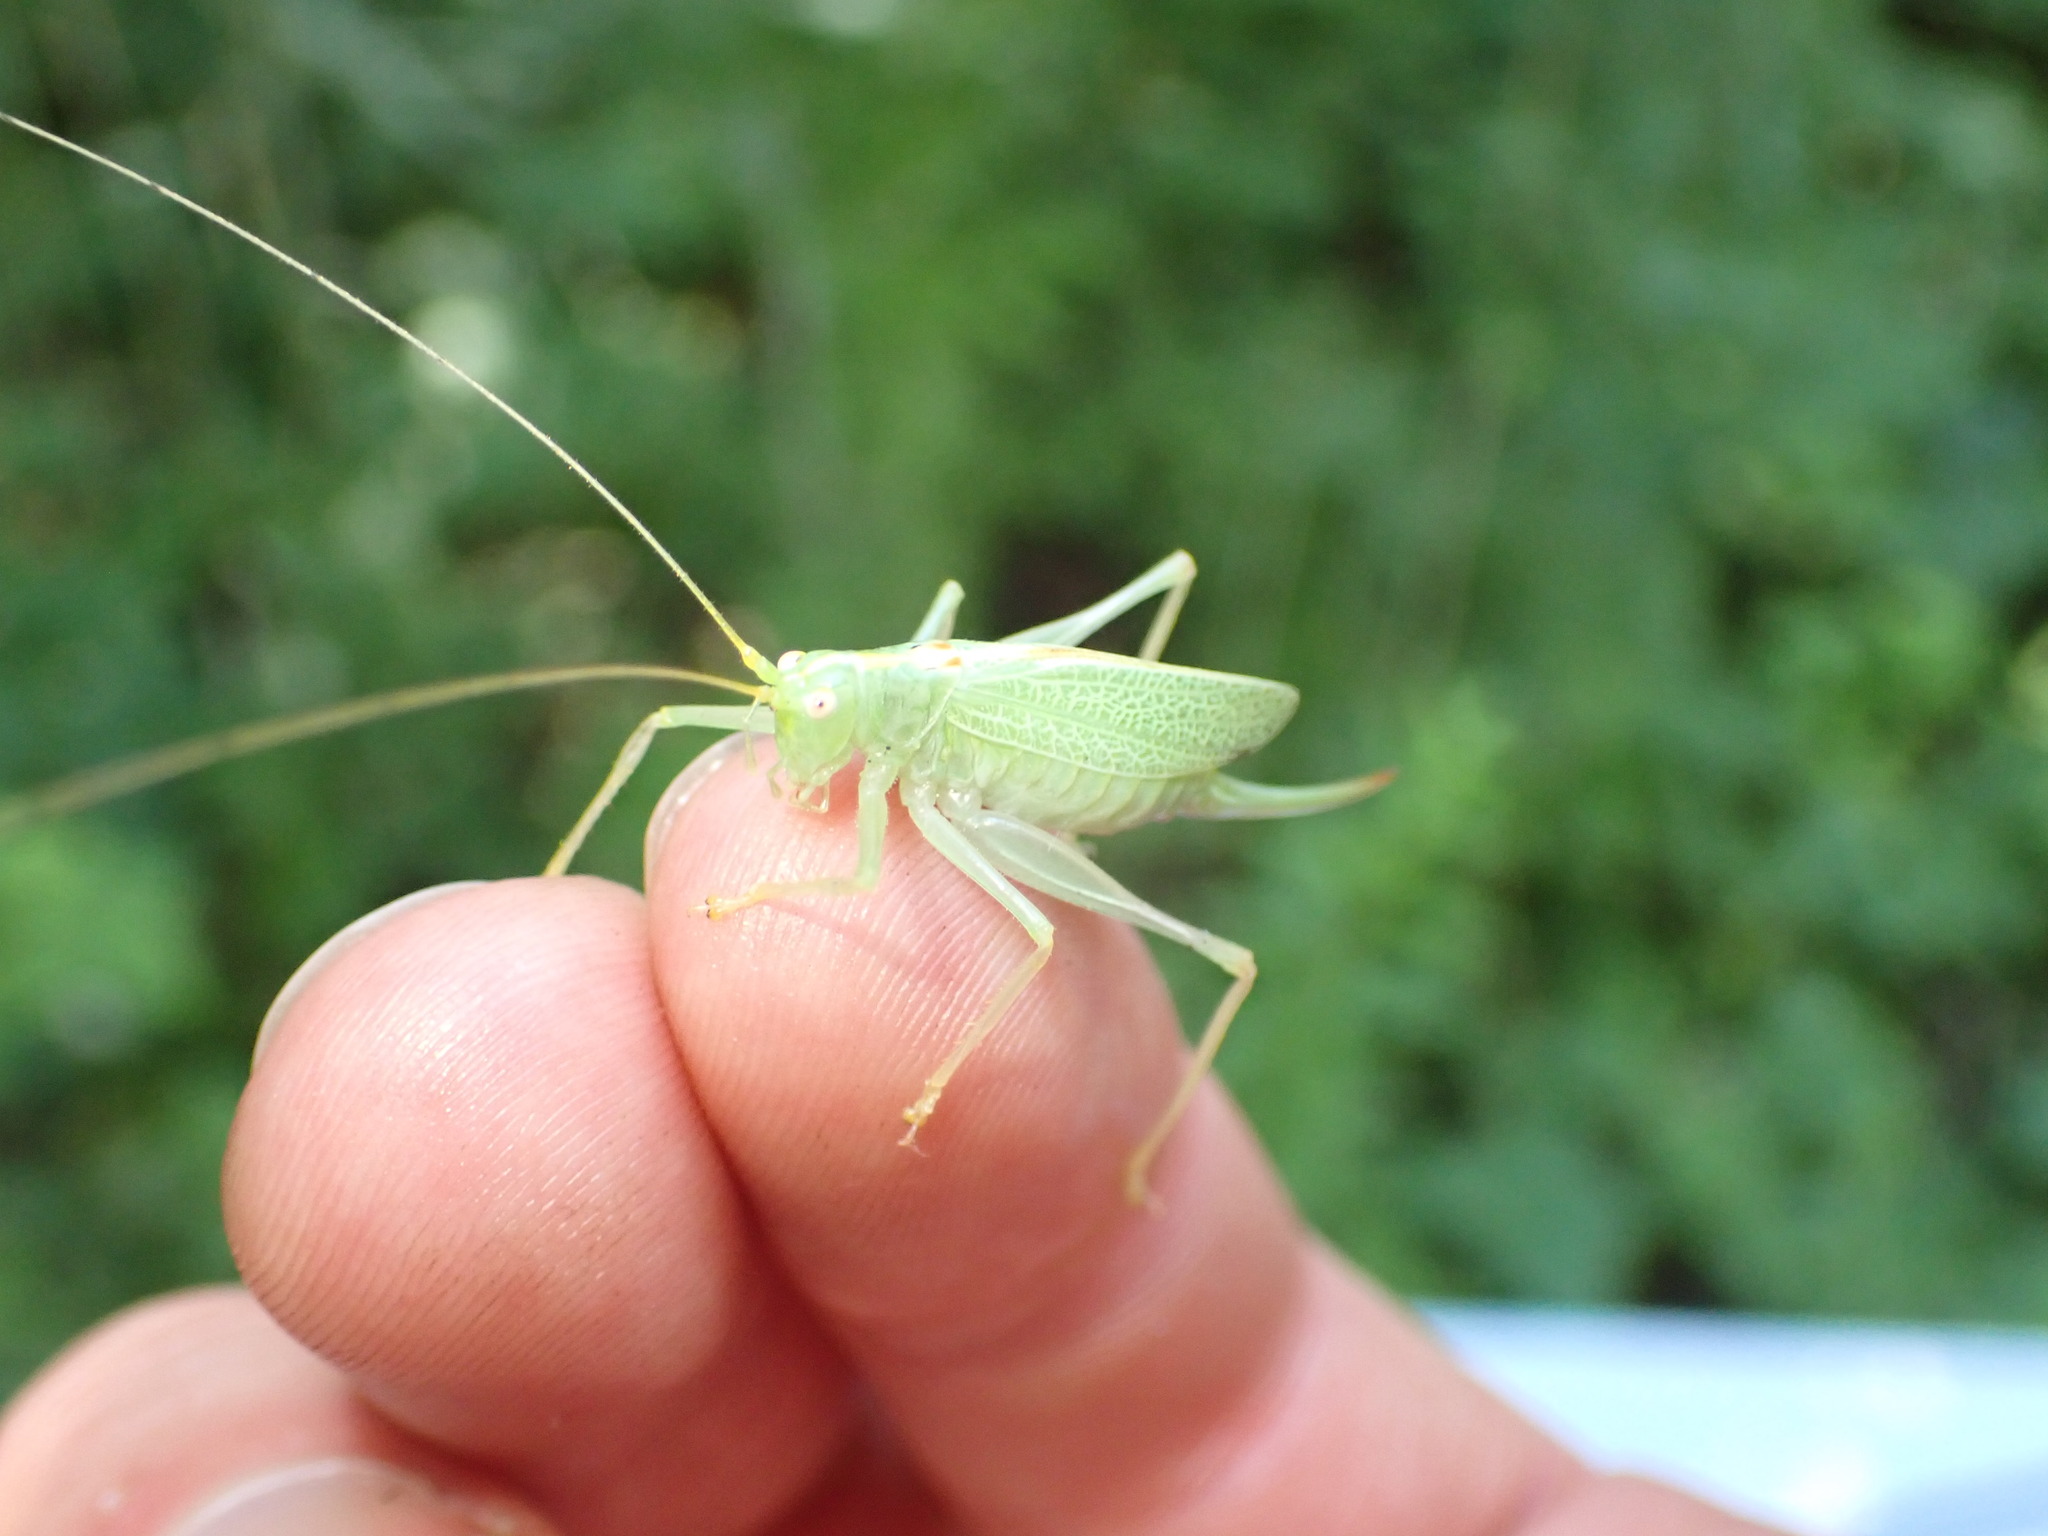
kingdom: Animalia
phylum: Arthropoda
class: Insecta
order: Orthoptera
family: Tettigoniidae
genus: Meconema
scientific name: Meconema thalassinum
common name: Oak bush-cricket
